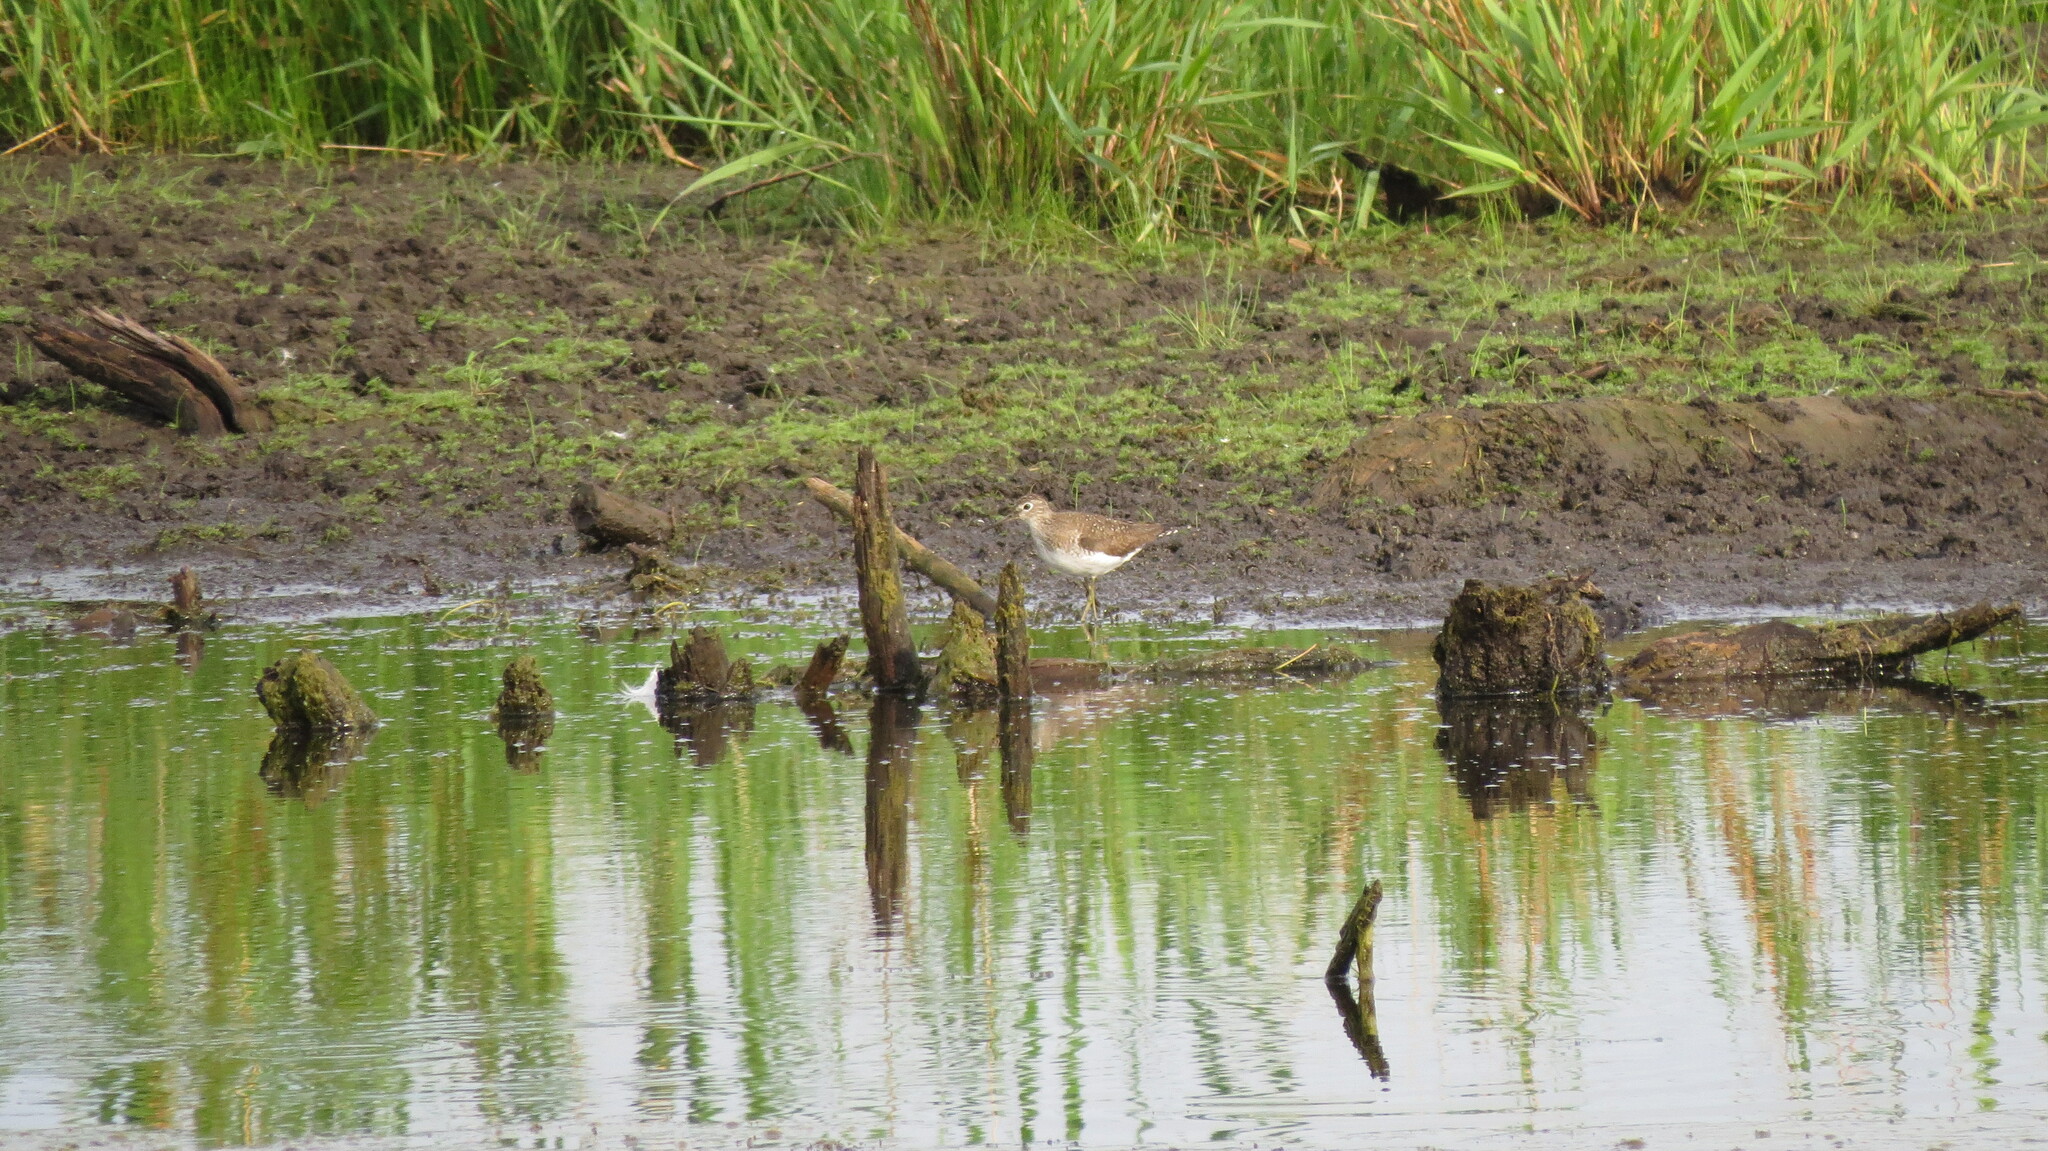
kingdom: Animalia
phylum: Chordata
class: Aves
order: Charadriiformes
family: Scolopacidae
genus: Tringa
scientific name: Tringa solitaria
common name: Solitary sandpiper
